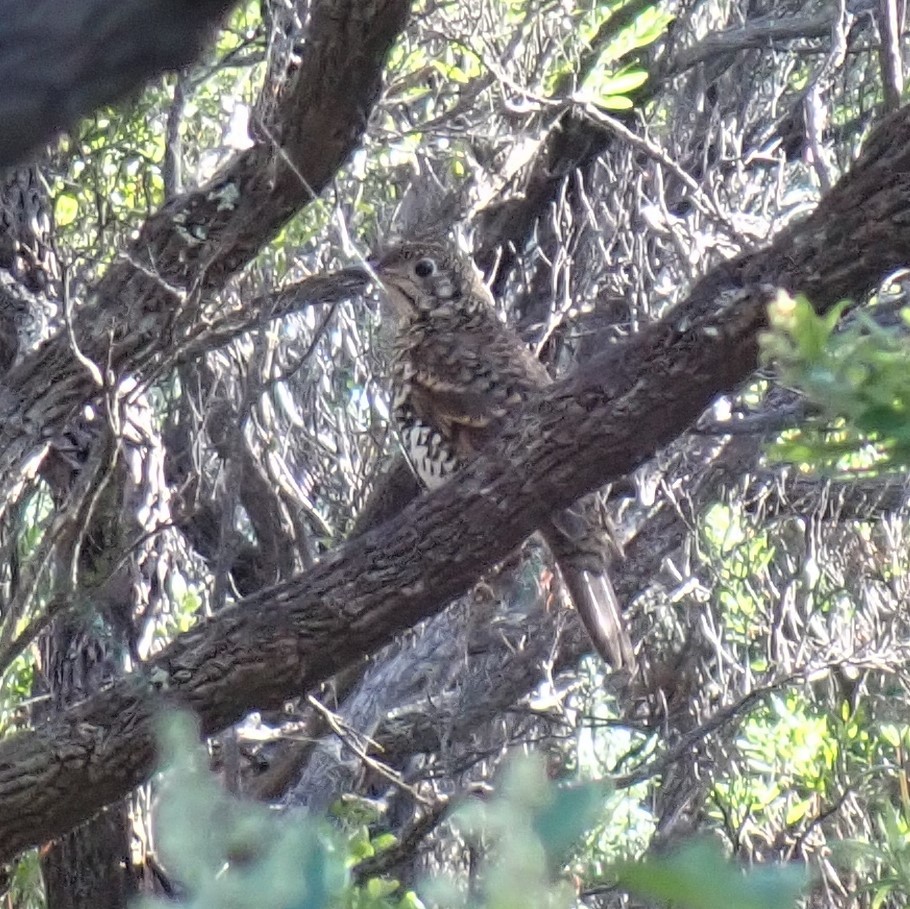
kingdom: Animalia
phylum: Chordata
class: Aves
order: Passeriformes
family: Turdidae
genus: Zoothera
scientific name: Zoothera lunulata
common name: Bassian thrush
